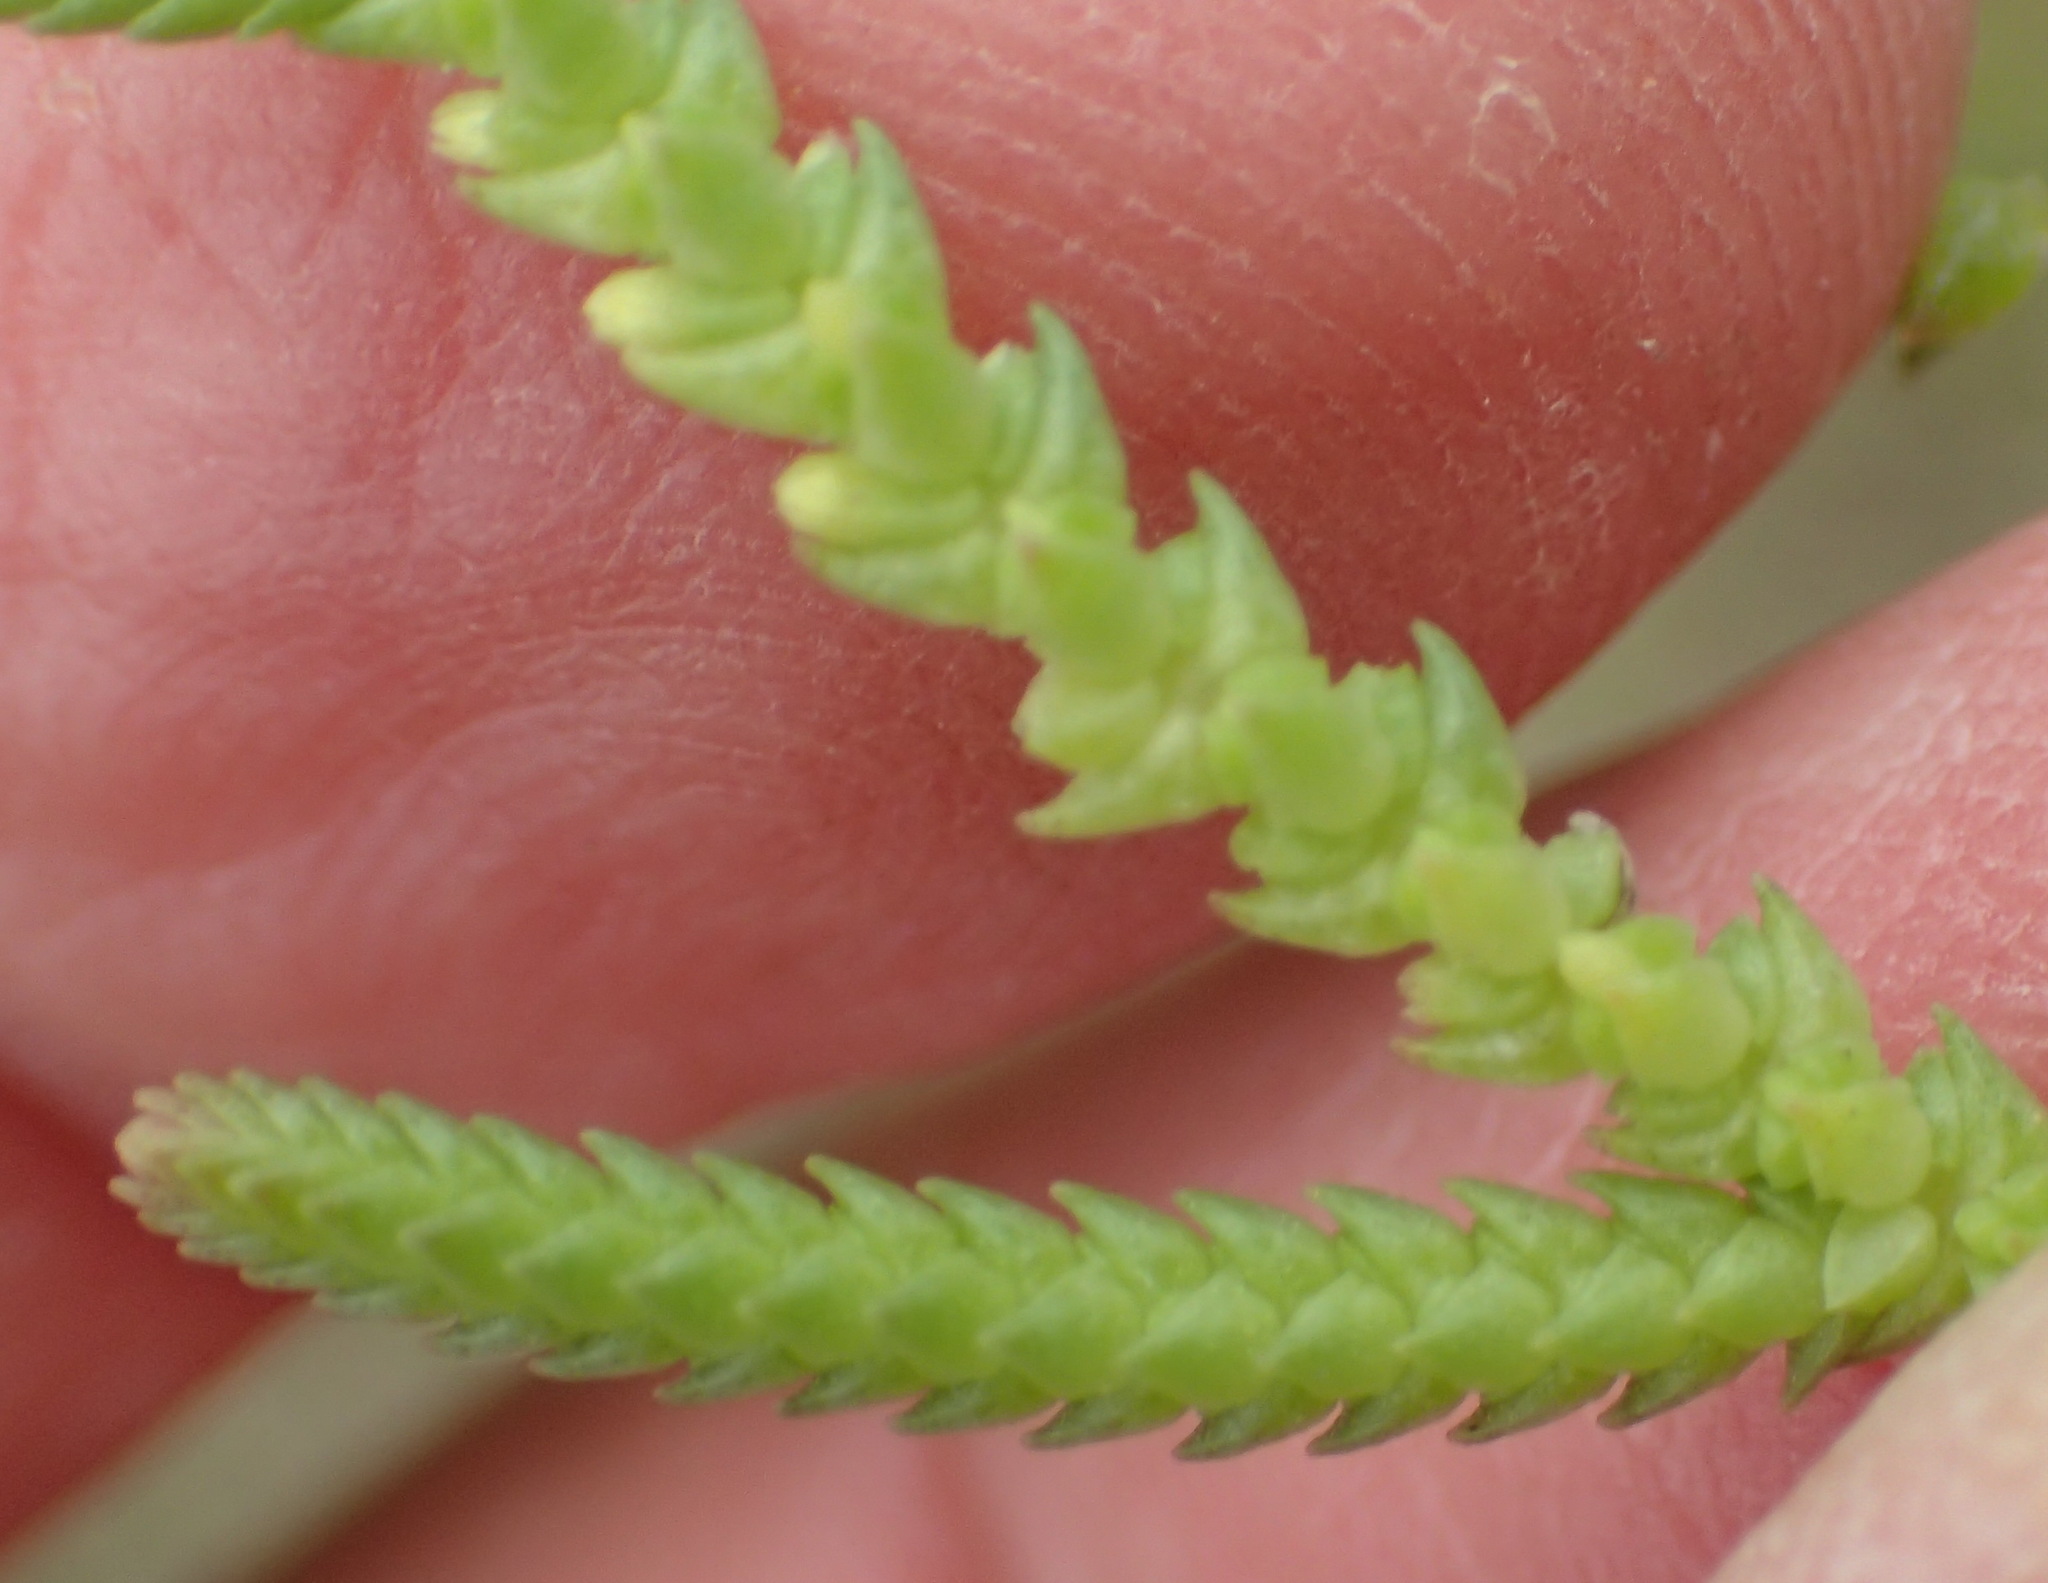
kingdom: Plantae
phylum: Tracheophyta
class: Magnoliopsida
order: Saxifragales
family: Crassulaceae
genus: Crassula
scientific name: Crassula muscosa
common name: Toy-cypress
